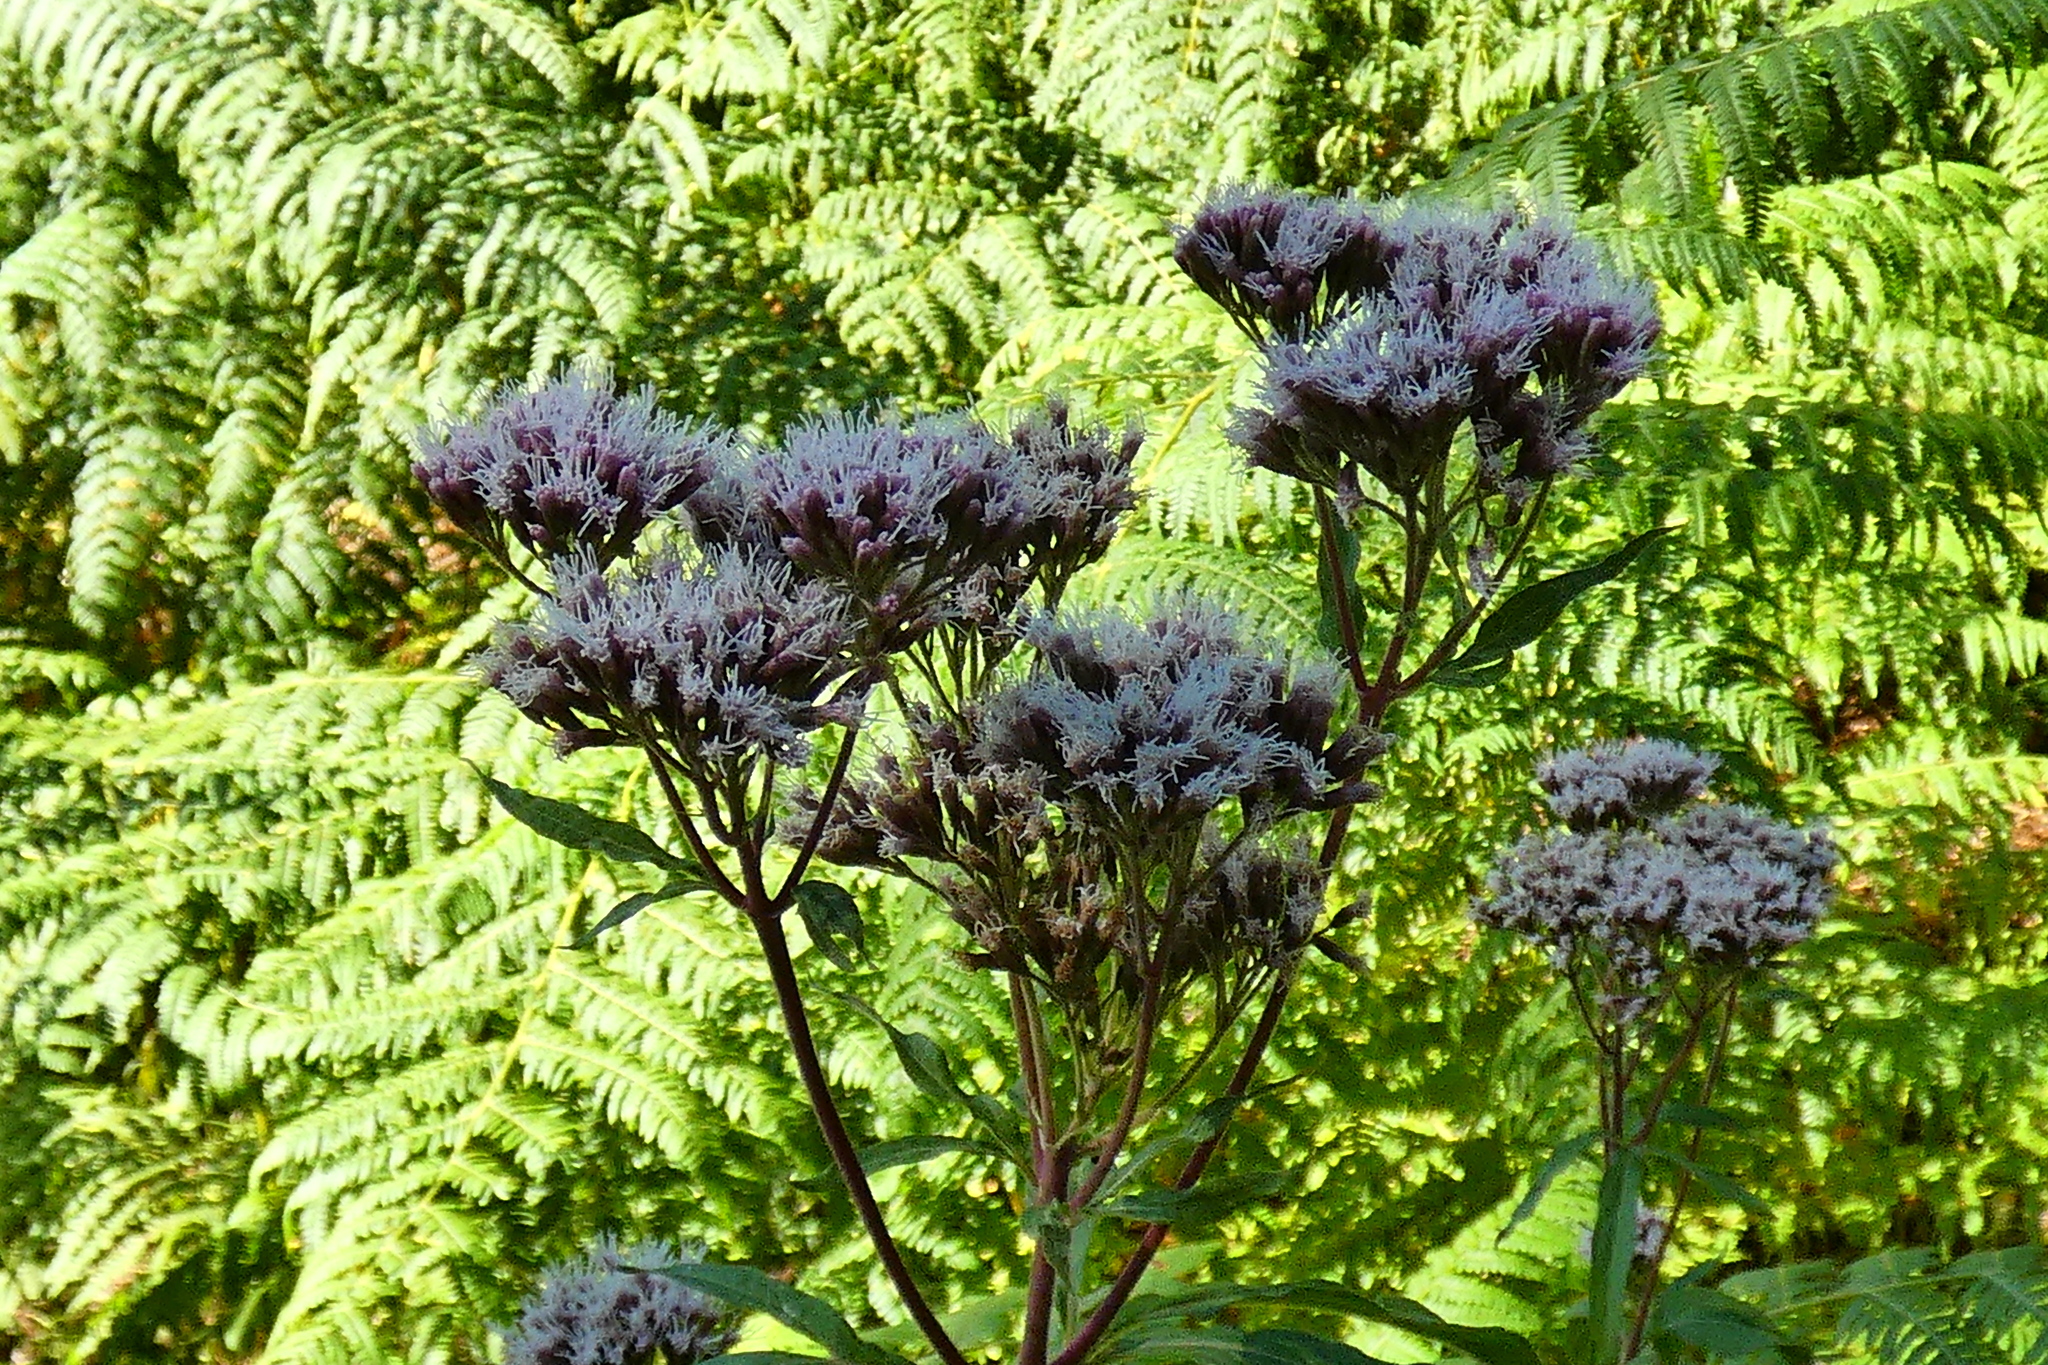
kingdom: Plantae
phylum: Tracheophyta
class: Magnoliopsida
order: Asterales
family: Asteraceae
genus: Eupatorium
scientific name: Eupatorium cannabinum
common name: Hemp-agrimony
